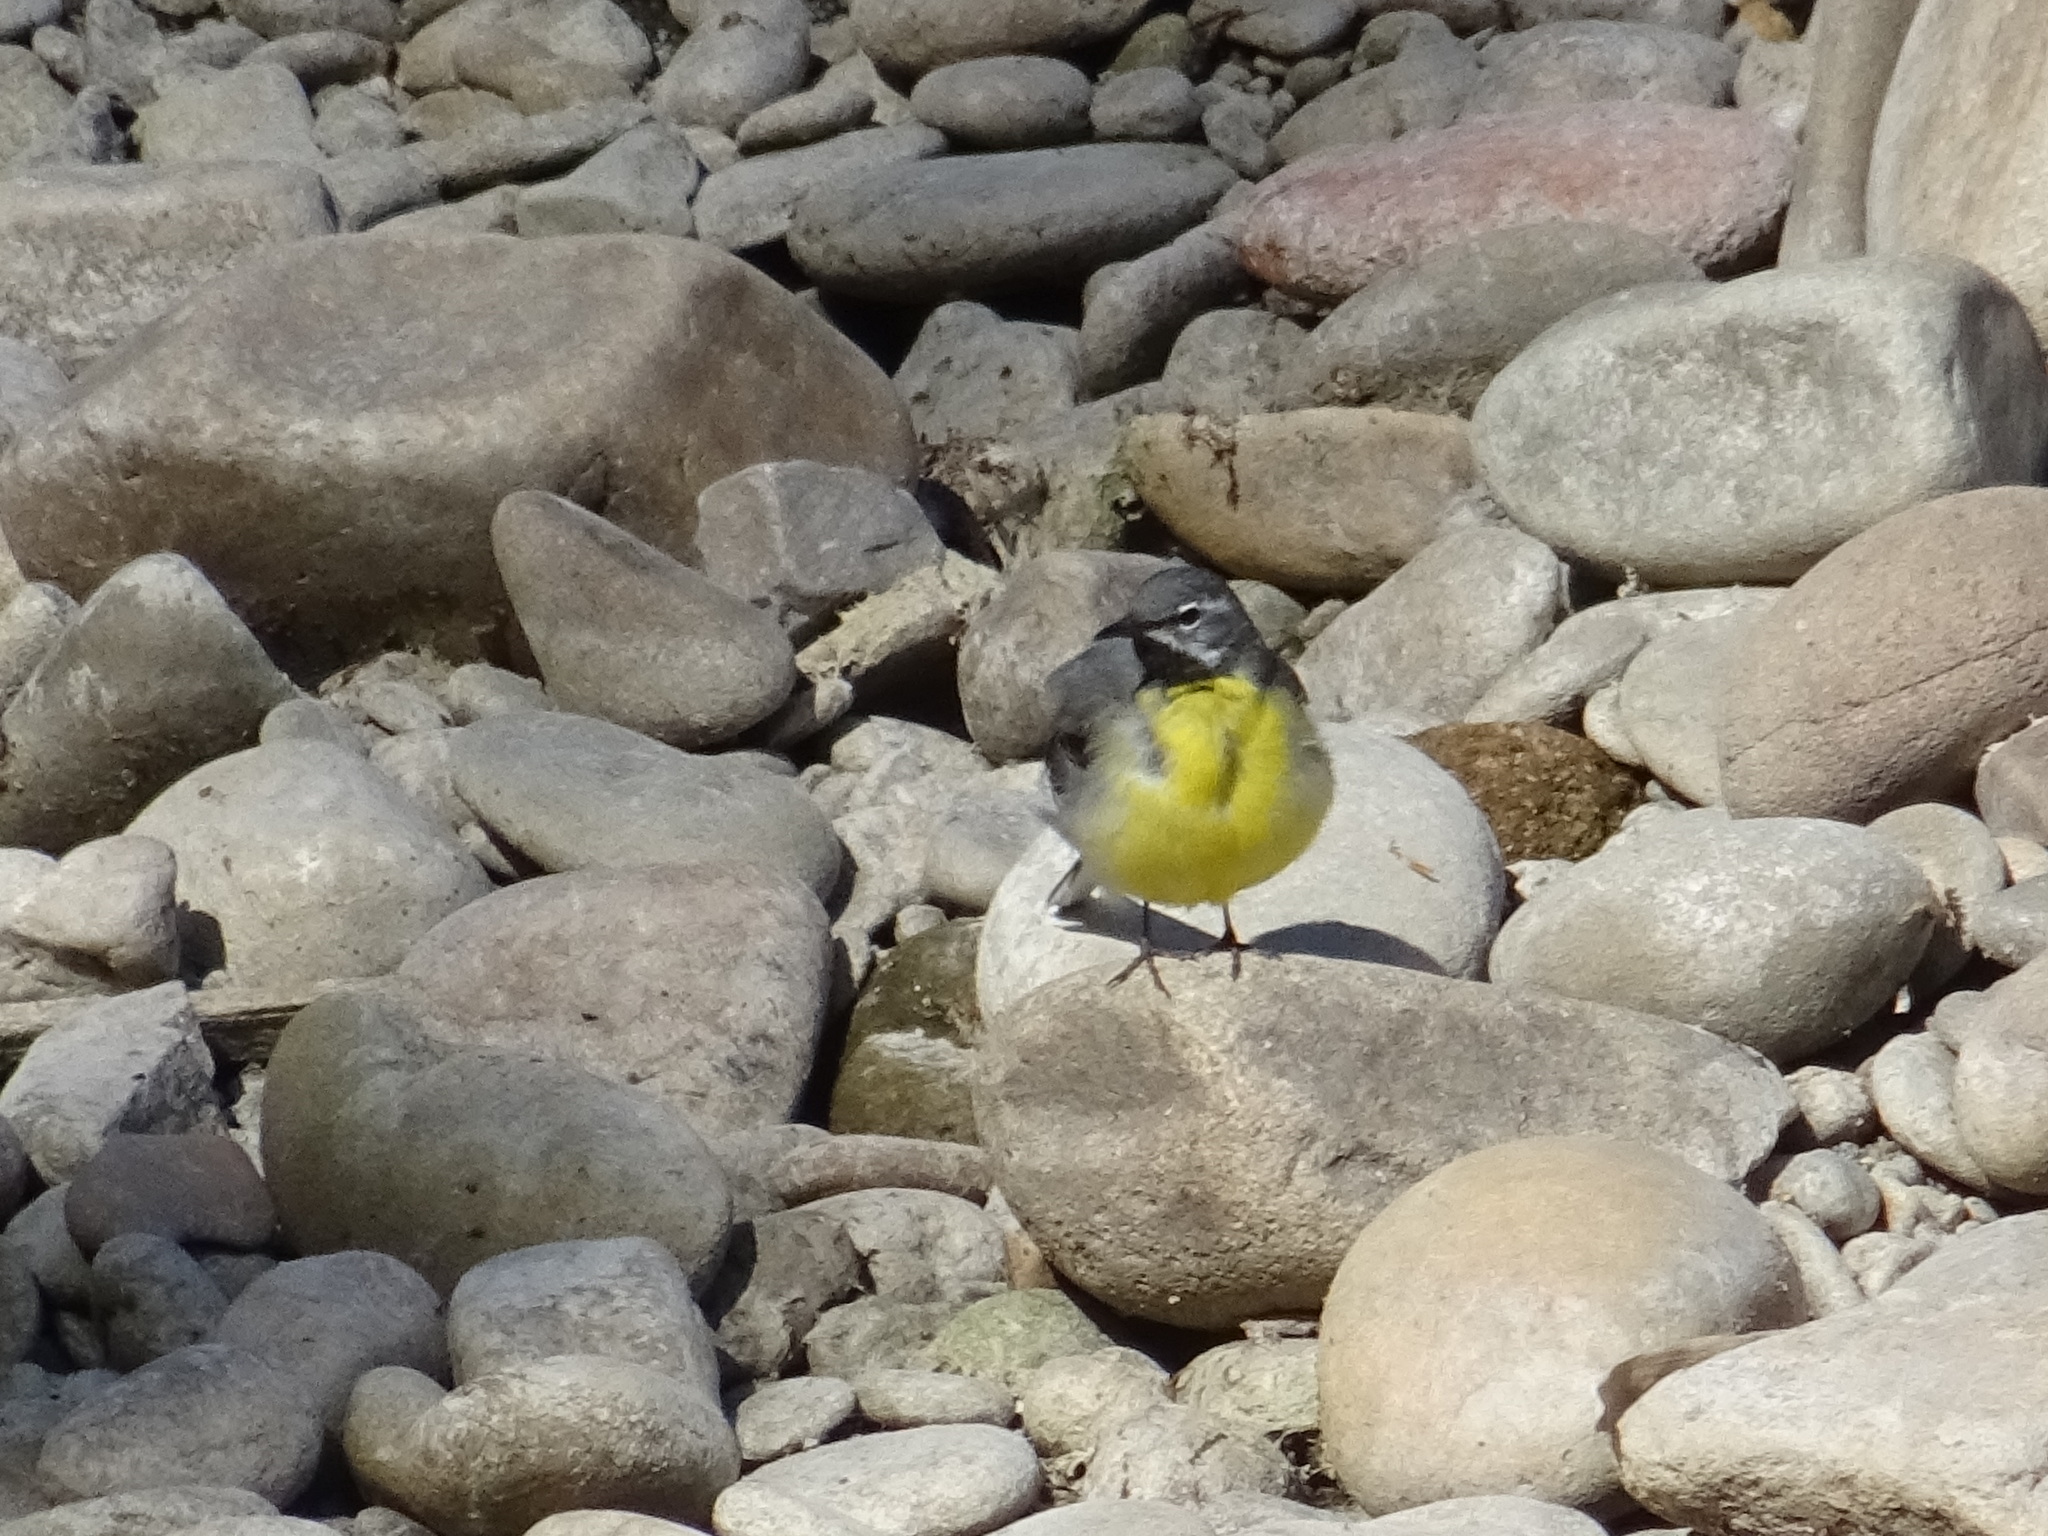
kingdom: Animalia
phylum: Chordata
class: Aves
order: Passeriformes
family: Motacillidae
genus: Motacilla
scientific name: Motacilla cinerea
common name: Grey wagtail
